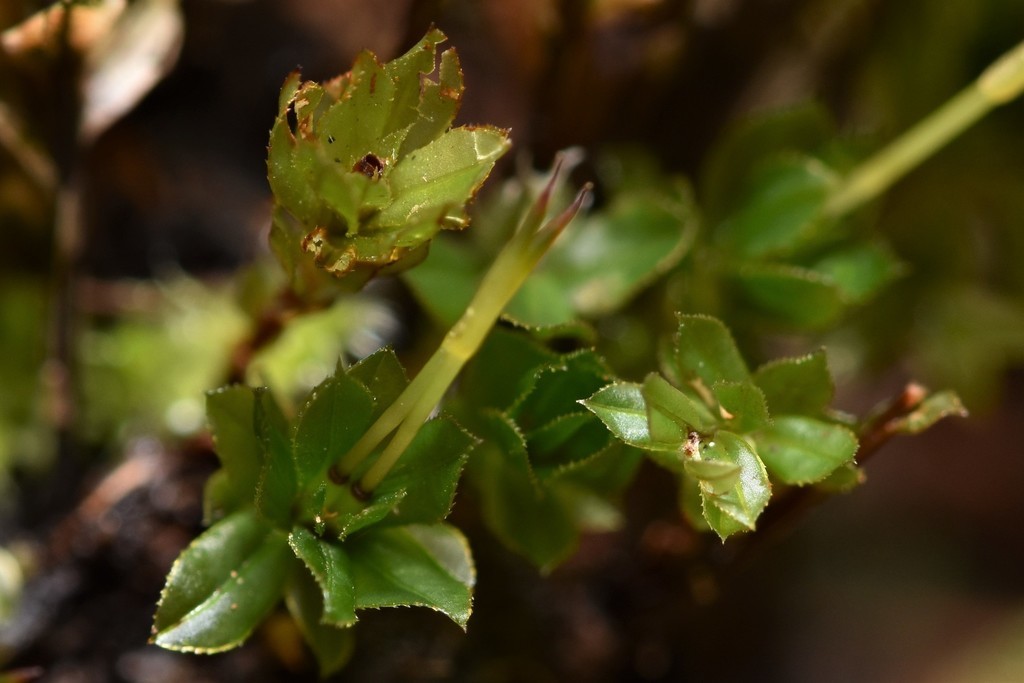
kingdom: Plantae
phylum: Bryophyta
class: Bryopsida
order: Bryales
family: Mniaceae
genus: Mnium
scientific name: Mnium spinulosum
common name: Red-mouthed leafy moss
